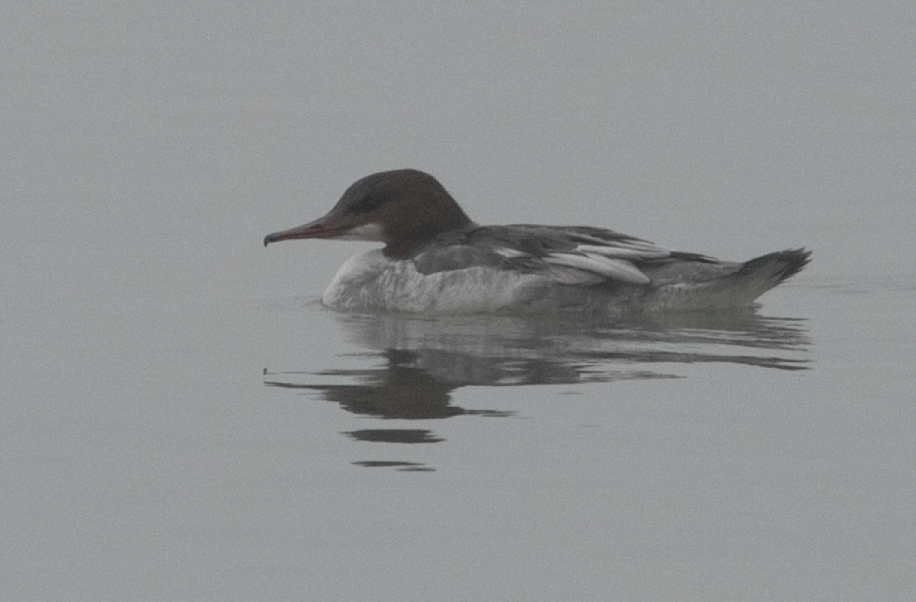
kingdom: Animalia
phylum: Chordata
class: Aves
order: Anseriformes
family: Anatidae
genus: Mergus
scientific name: Mergus merganser
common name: Common merganser
